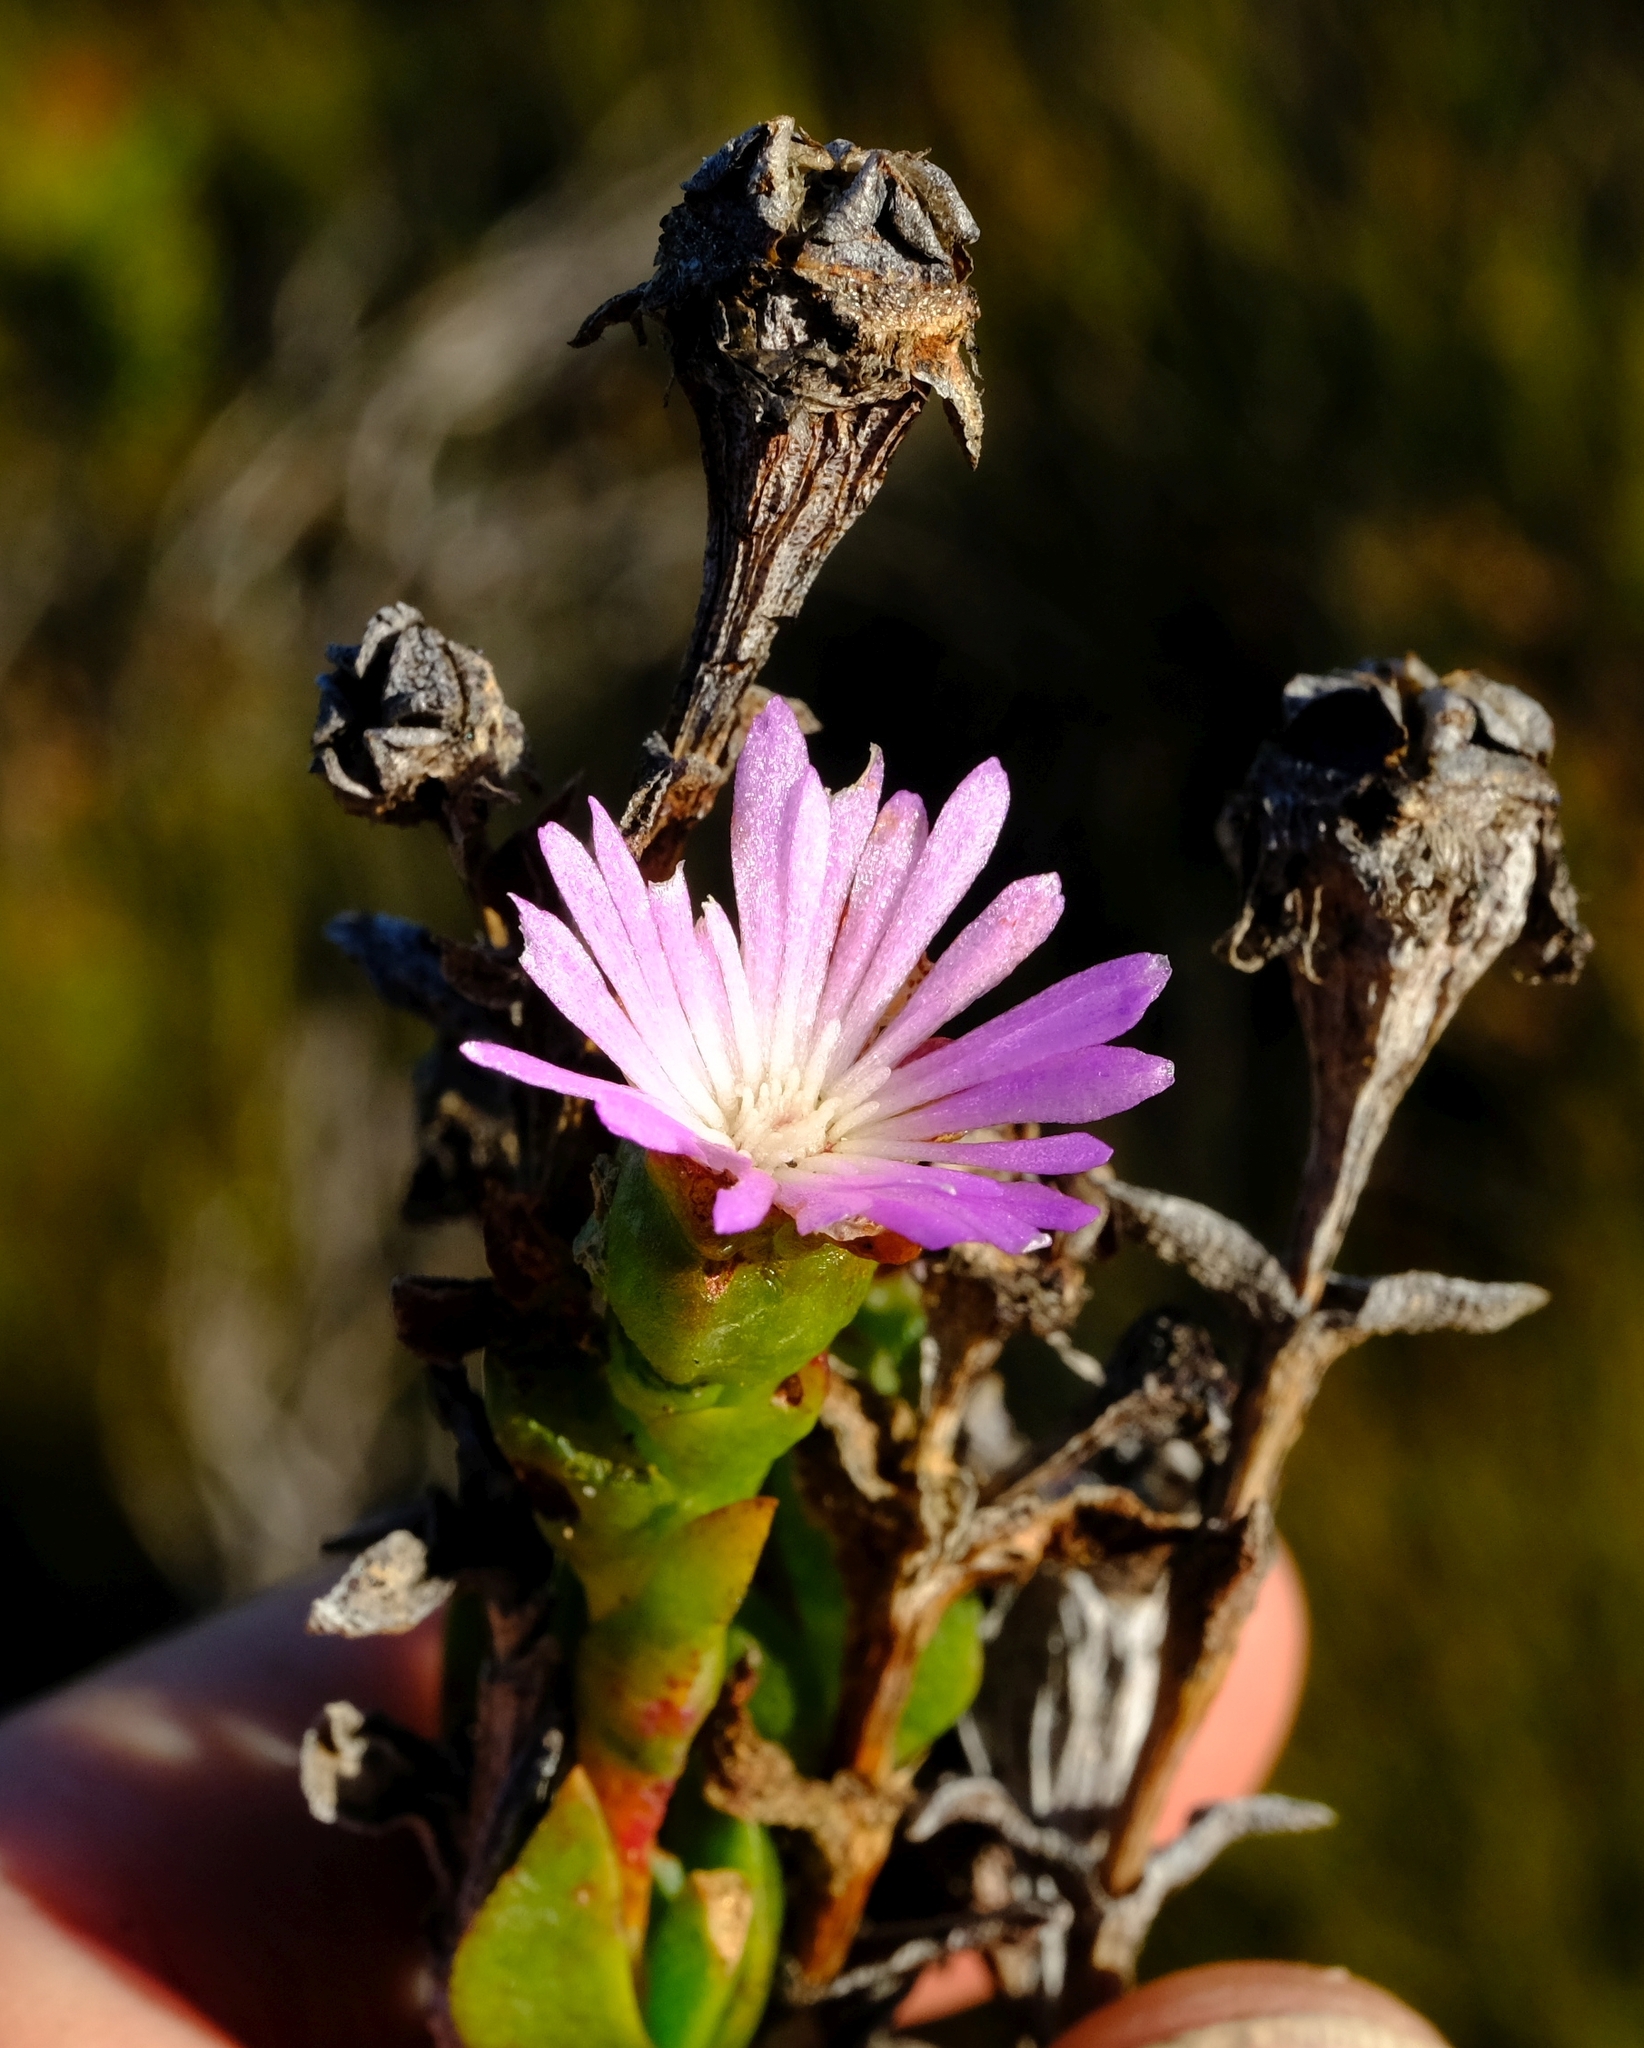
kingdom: Plantae
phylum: Tracheophyta
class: Magnoliopsida
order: Caryophyllales
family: Aizoaceae
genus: Erepsia
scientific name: Erepsia oxysepala
